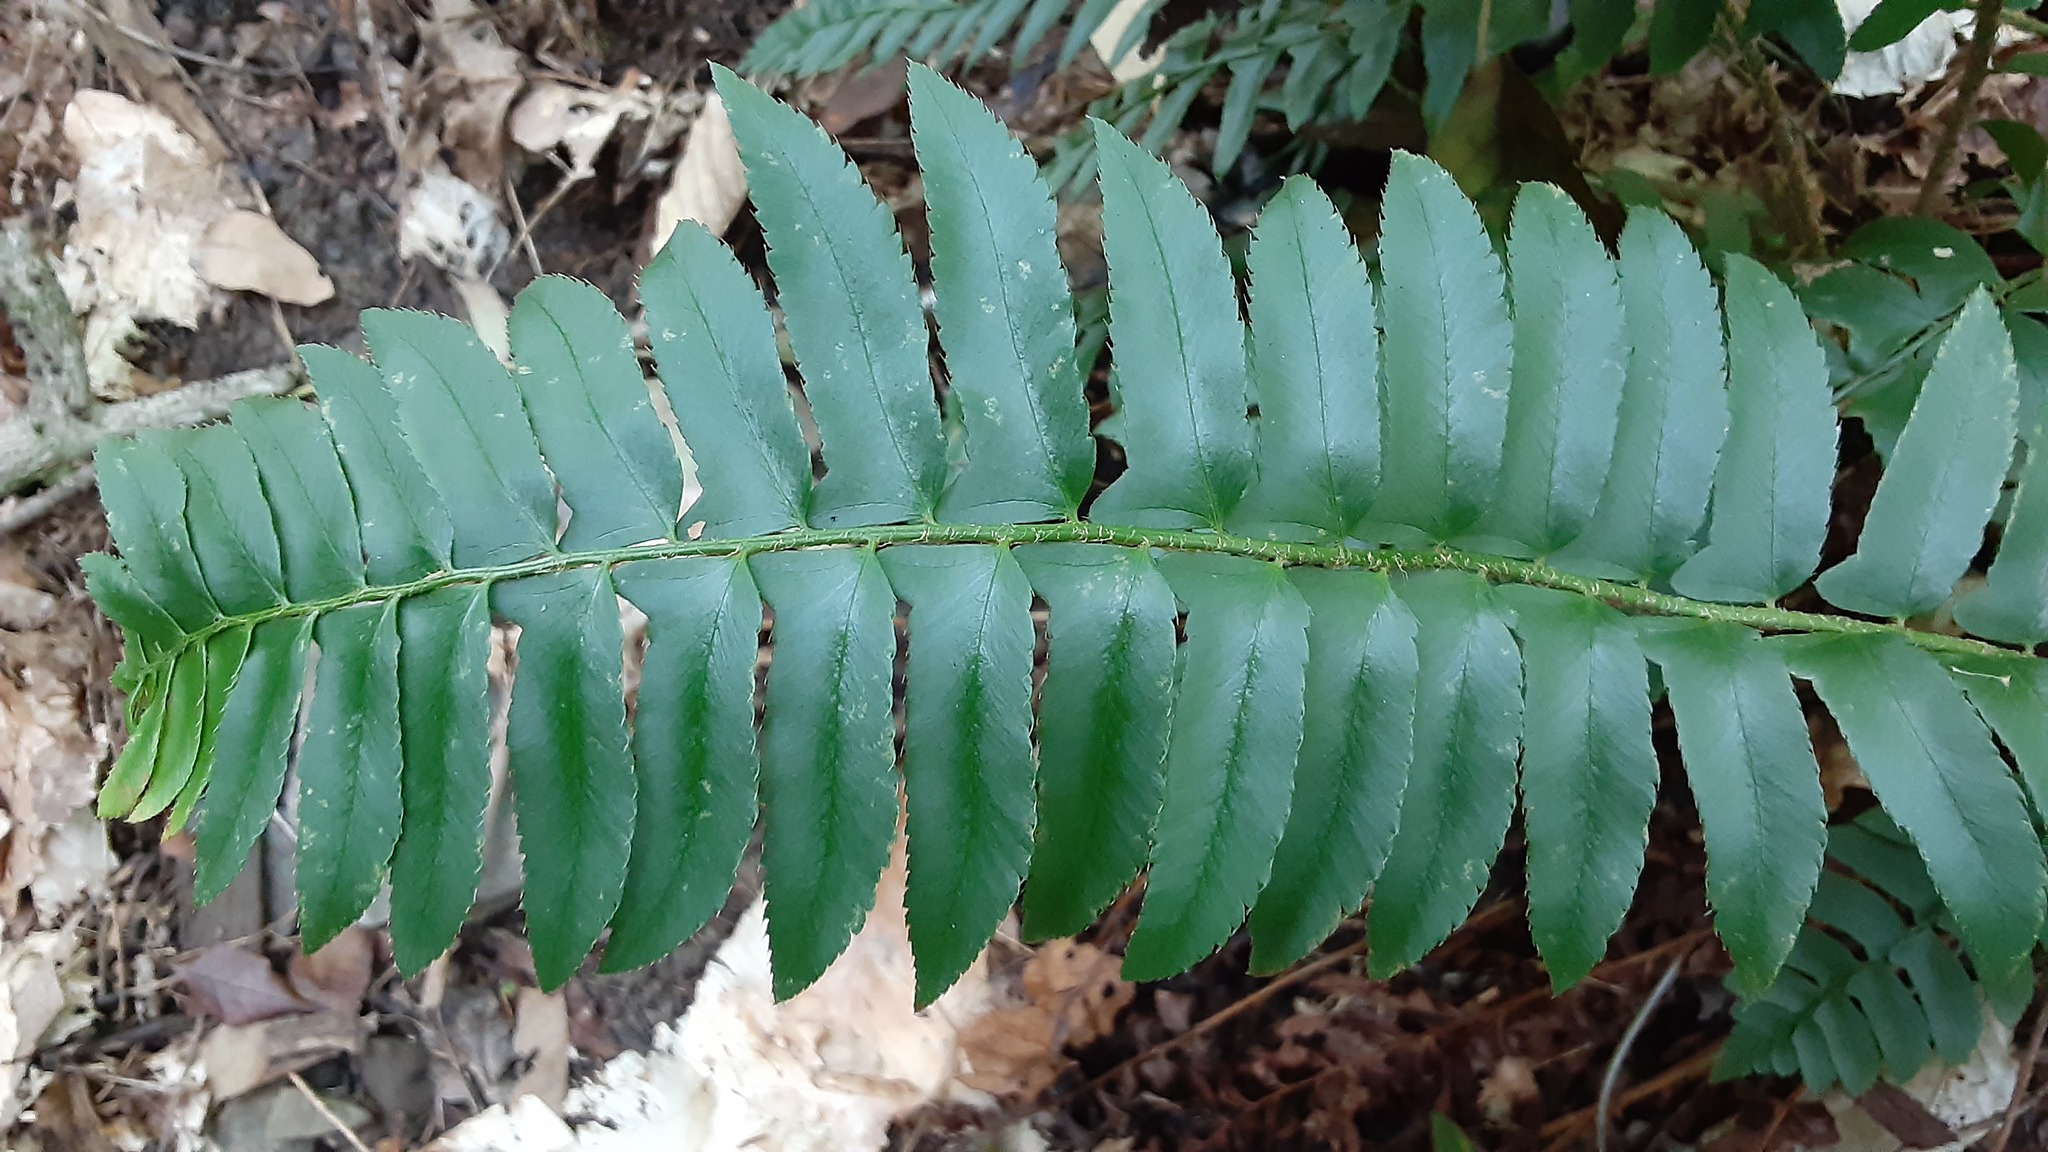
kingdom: Plantae
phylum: Tracheophyta
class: Polypodiopsida
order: Polypodiales
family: Dryopteridaceae
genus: Polystichum
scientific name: Polystichum acrostichoides
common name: Christmas fern
